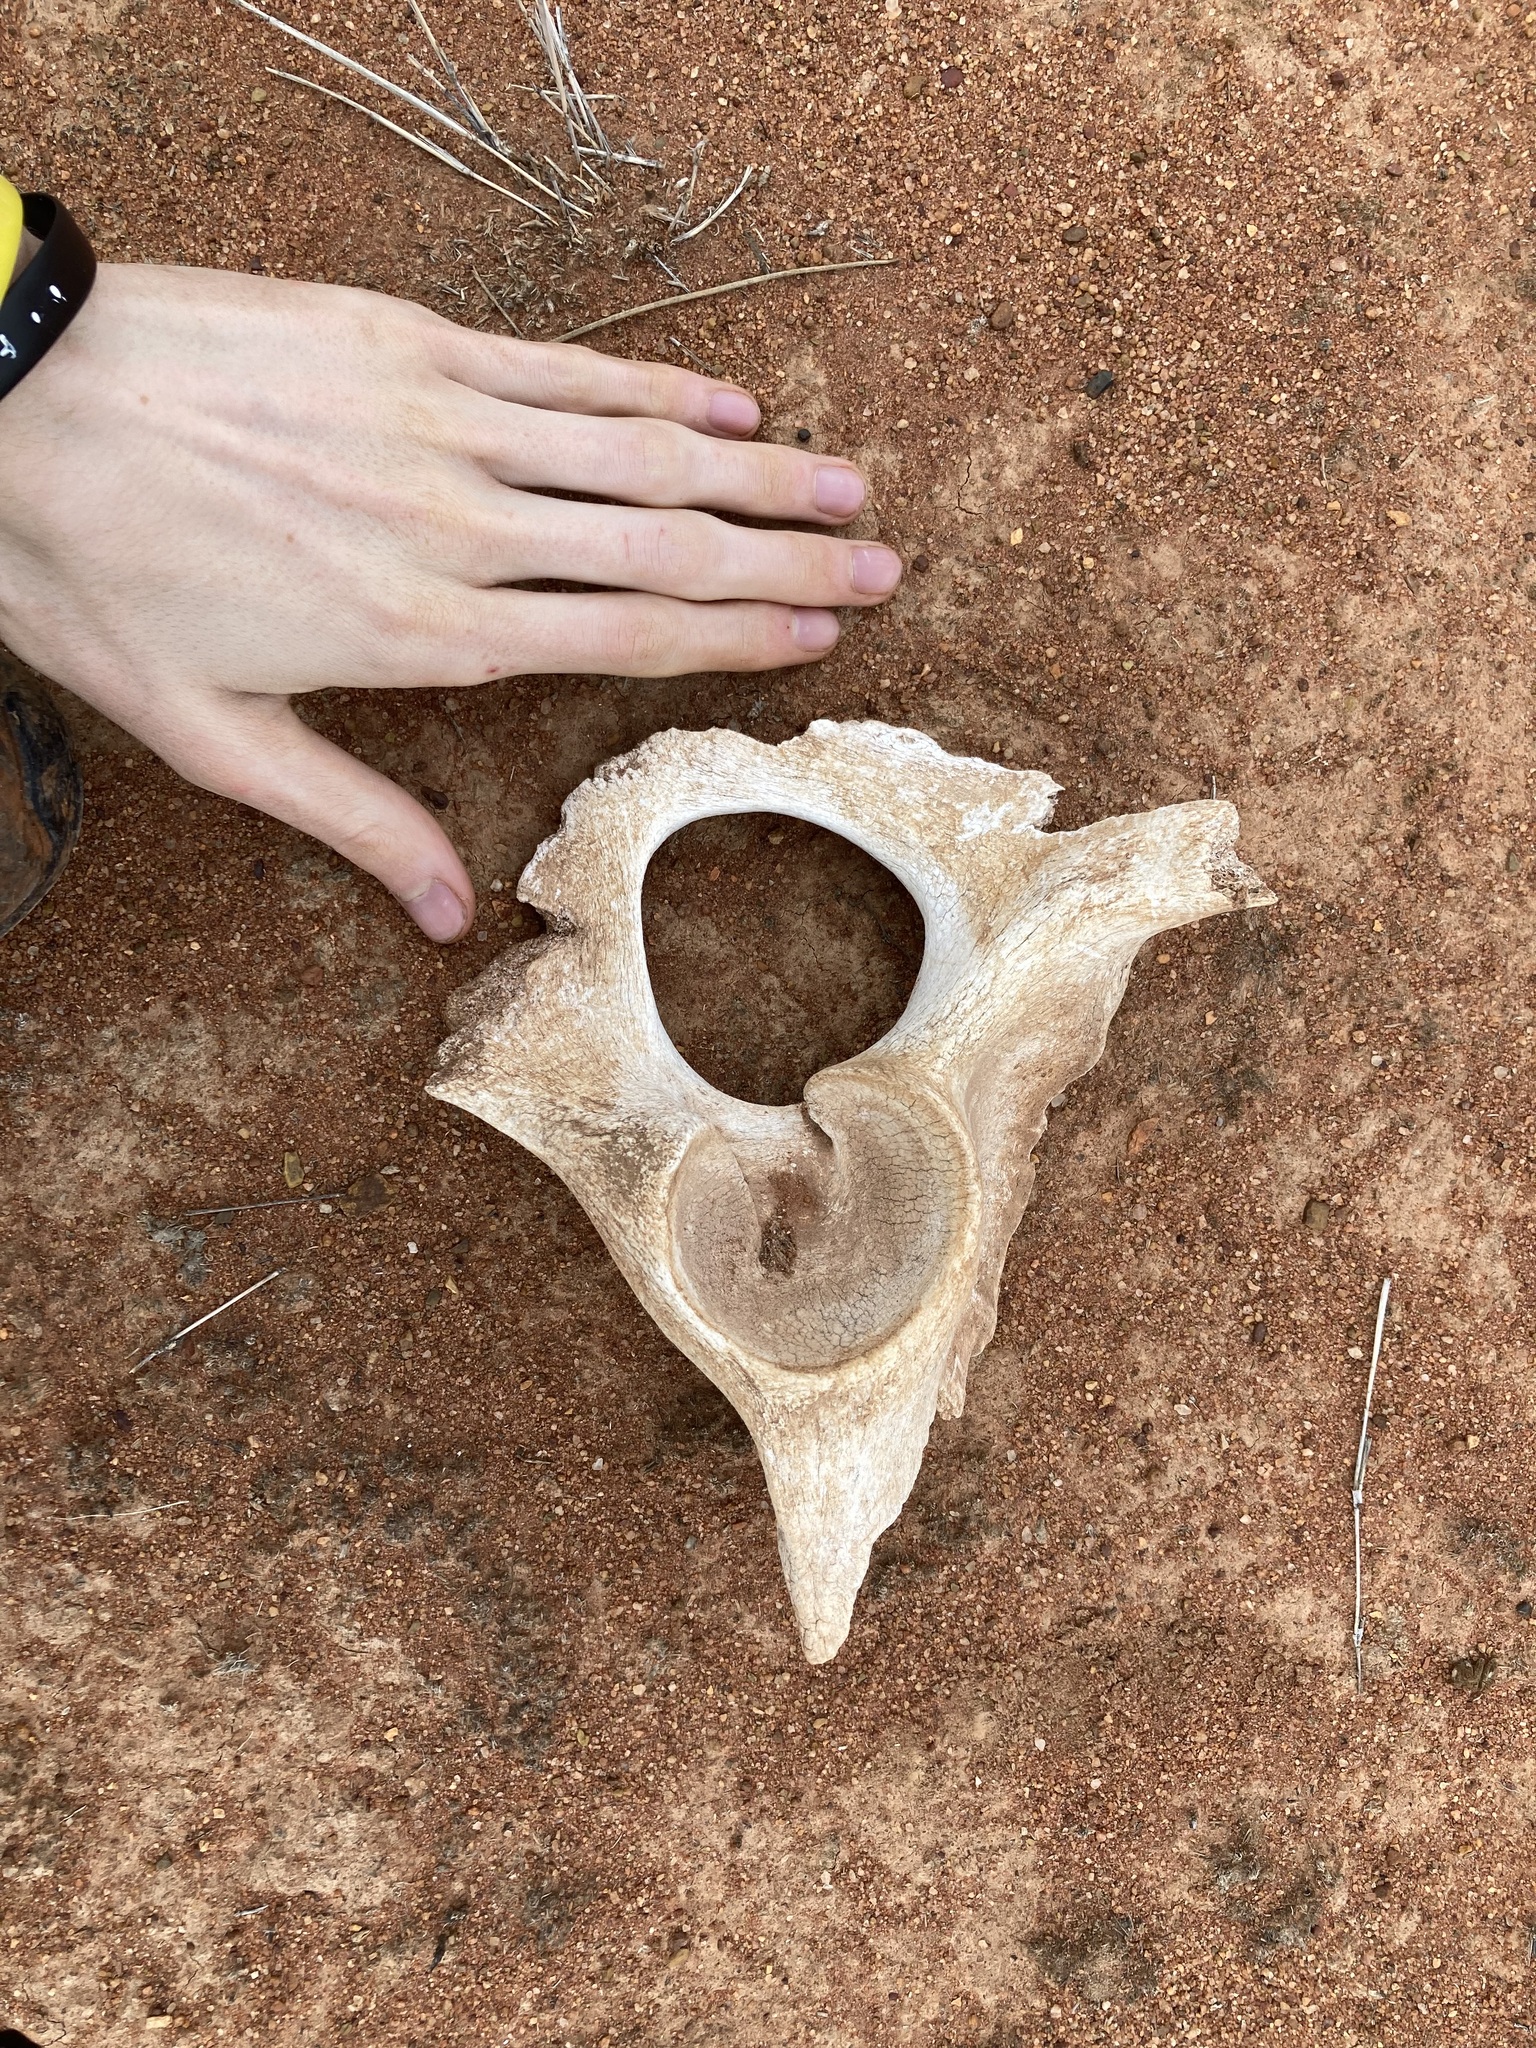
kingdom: Animalia
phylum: Chordata
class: Mammalia
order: Artiodactyla
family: Camelidae
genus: Camelus
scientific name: Camelus dromedarius
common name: One-humped camel
